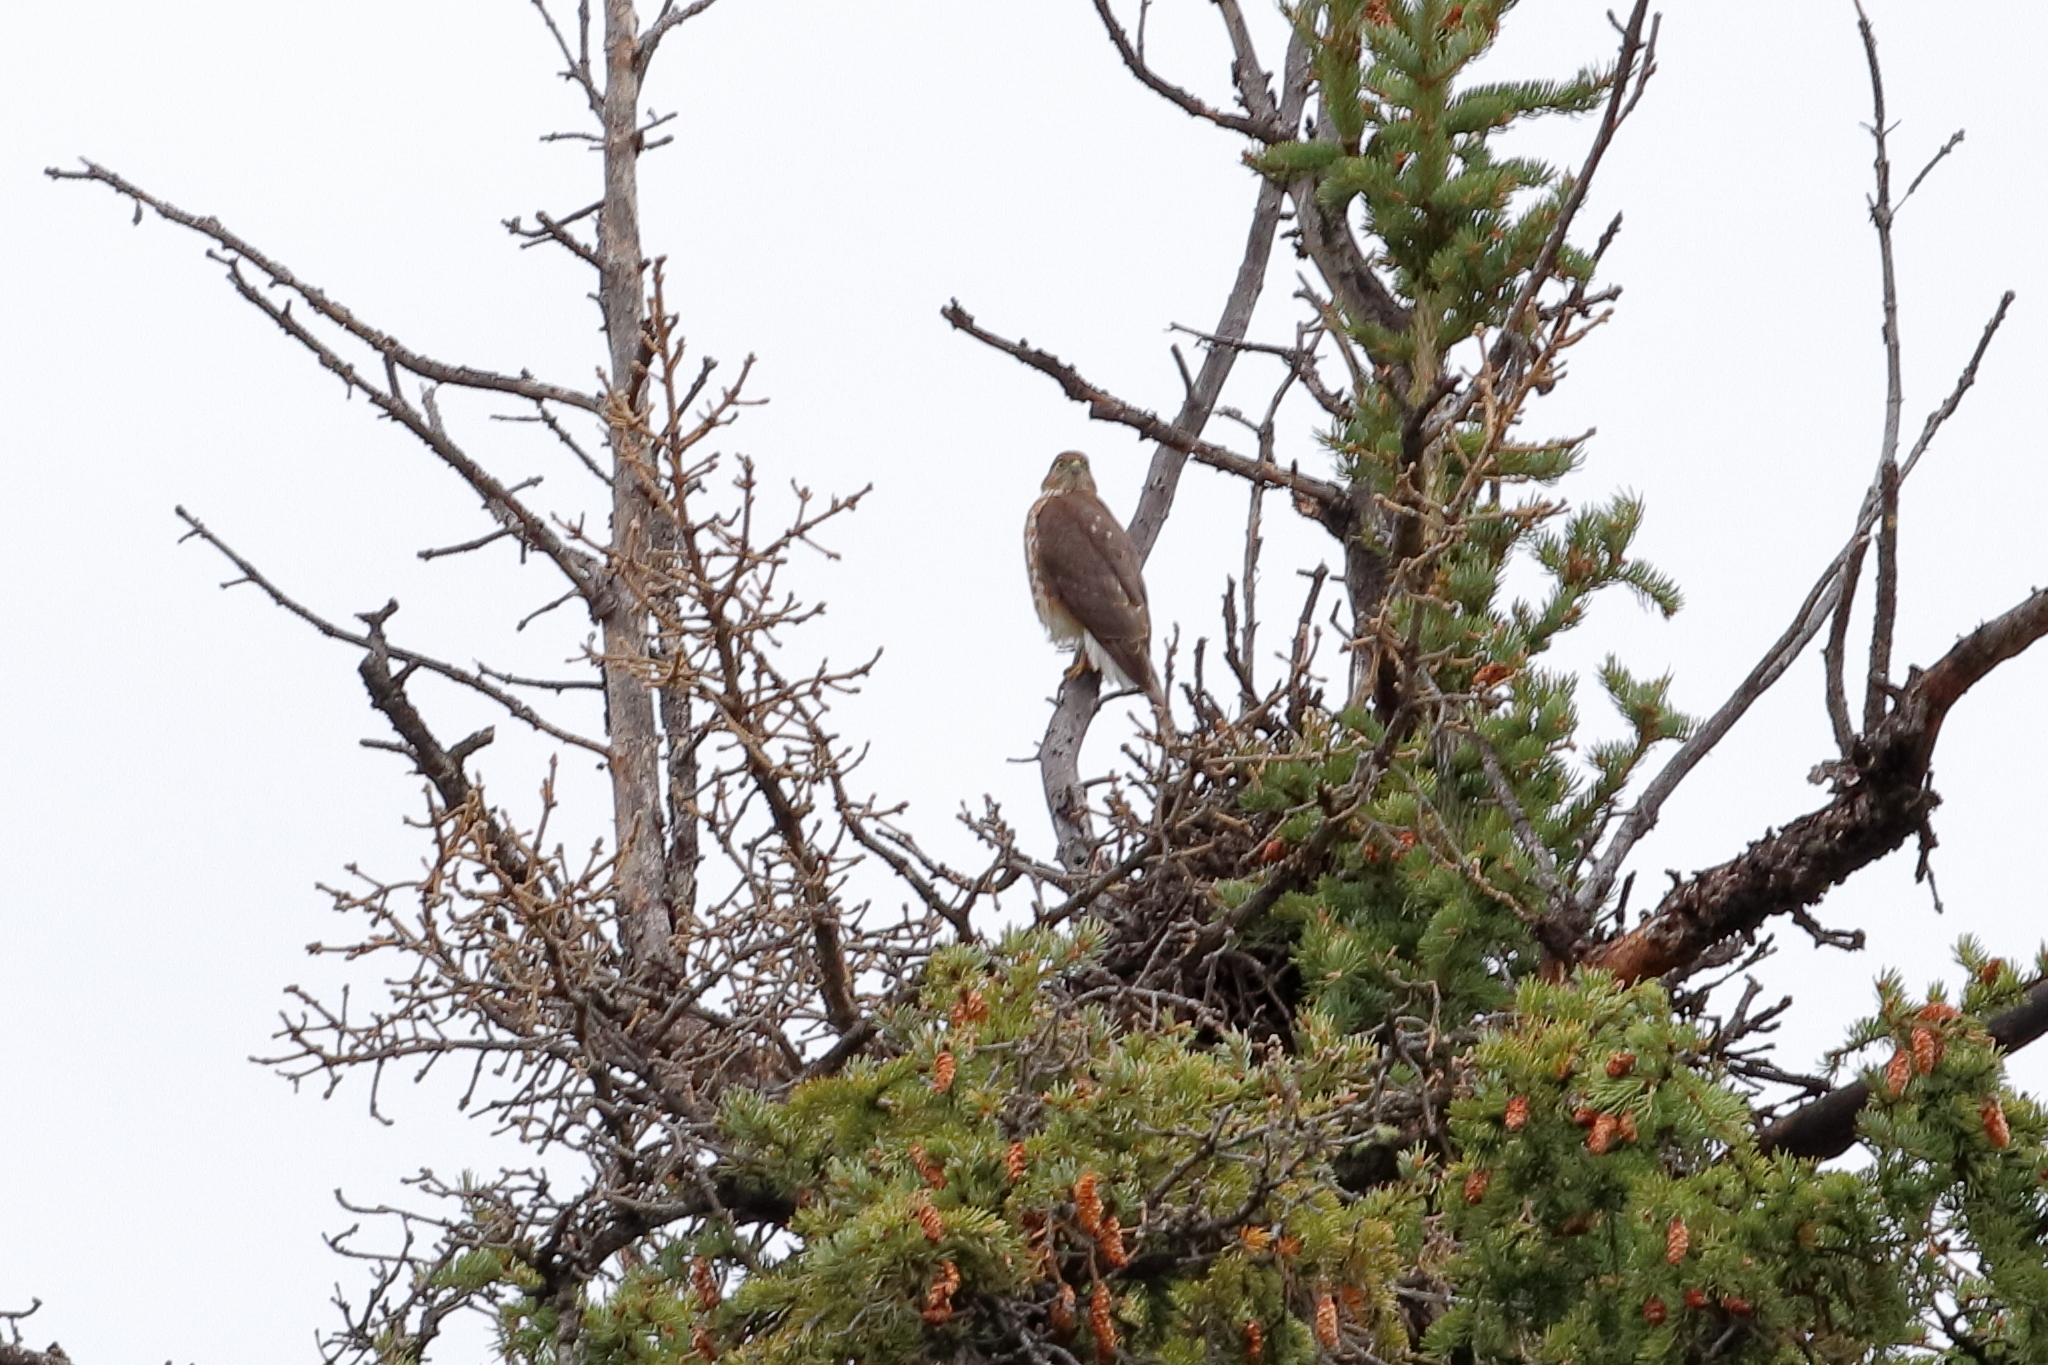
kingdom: Animalia
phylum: Chordata
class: Aves
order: Accipitriformes
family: Accipitridae
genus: Accipiter
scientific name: Accipiter striatus
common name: Sharp-shinned hawk
